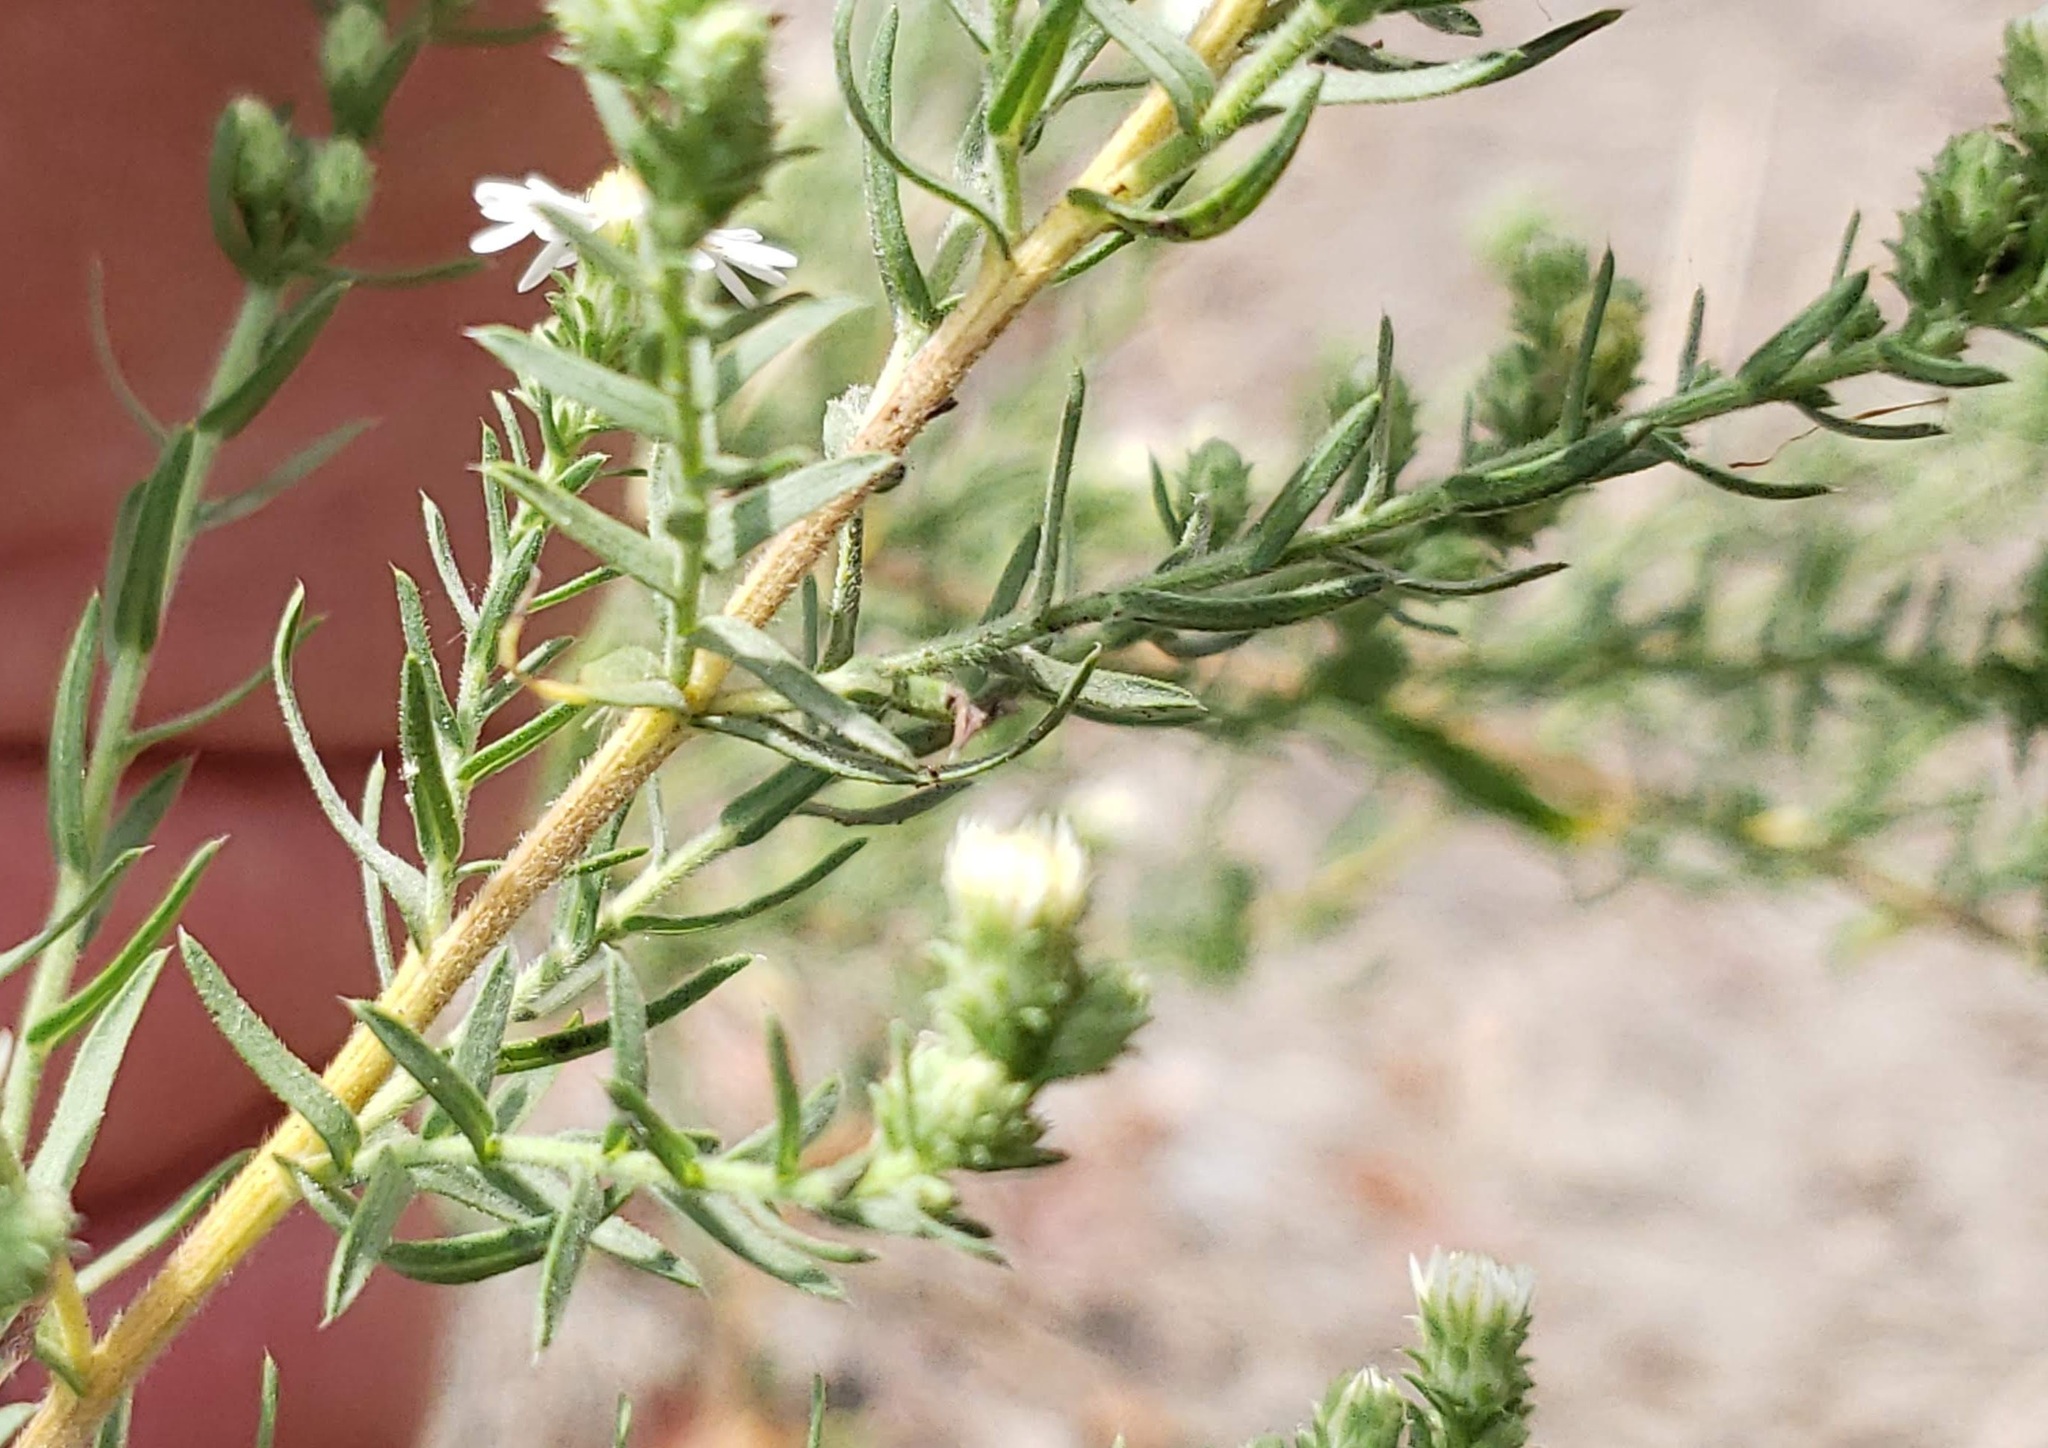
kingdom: Plantae
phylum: Tracheophyta
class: Magnoliopsida
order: Asterales
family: Asteraceae
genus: Symphyotrichum
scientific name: Symphyotrichum ericoides
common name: Heath aster
